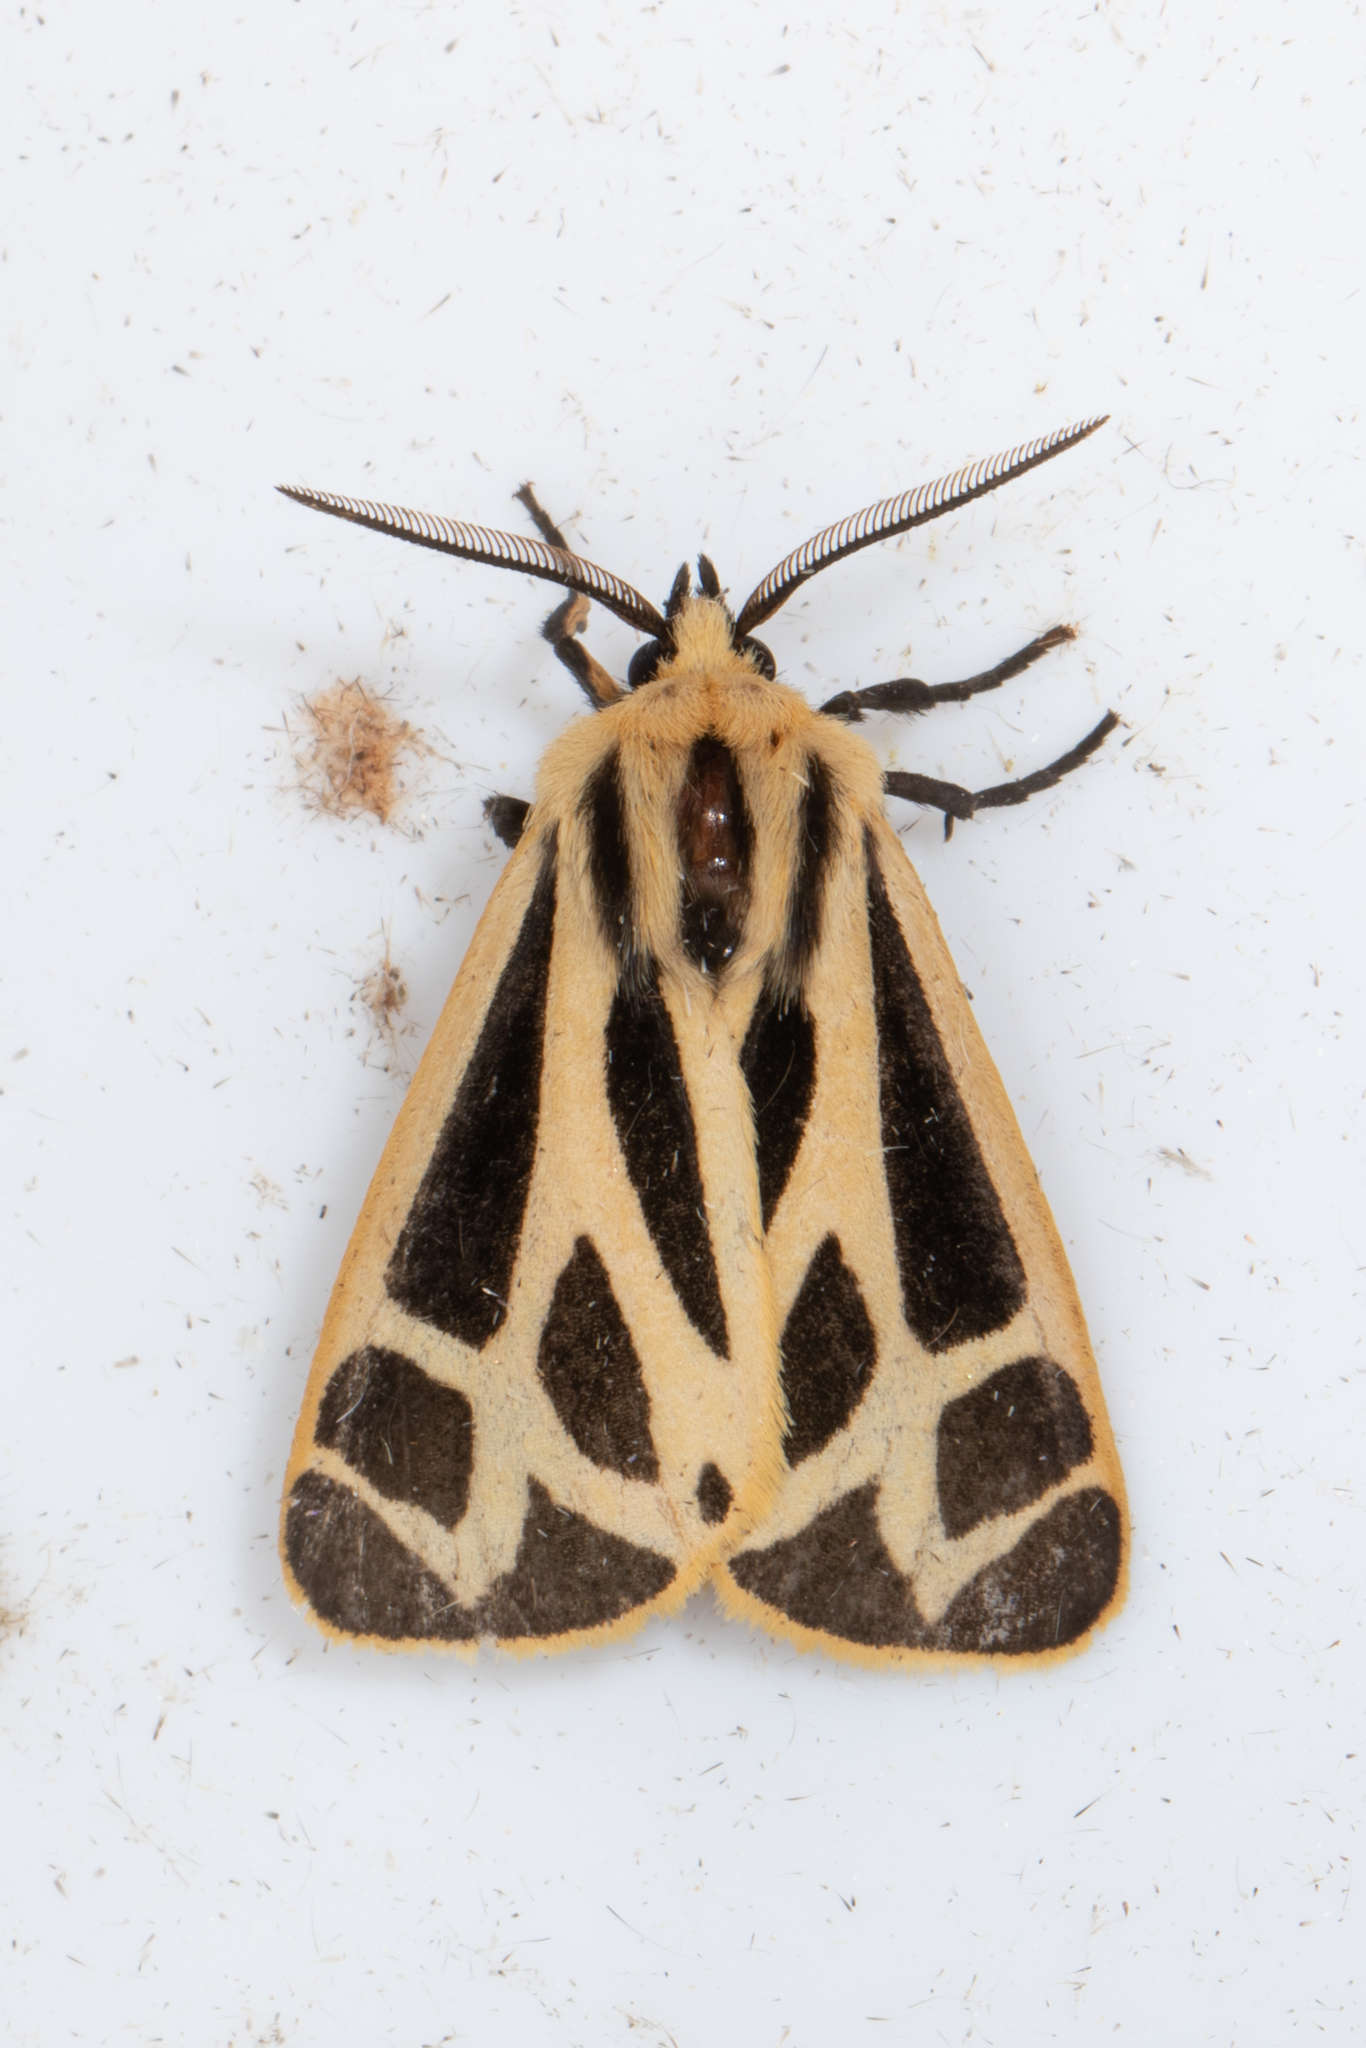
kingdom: Animalia
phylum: Arthropoda
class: Insecta
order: Lepidoptera
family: Erebidae
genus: Apantesis
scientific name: Apantesis nais
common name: Nais tiger moth
